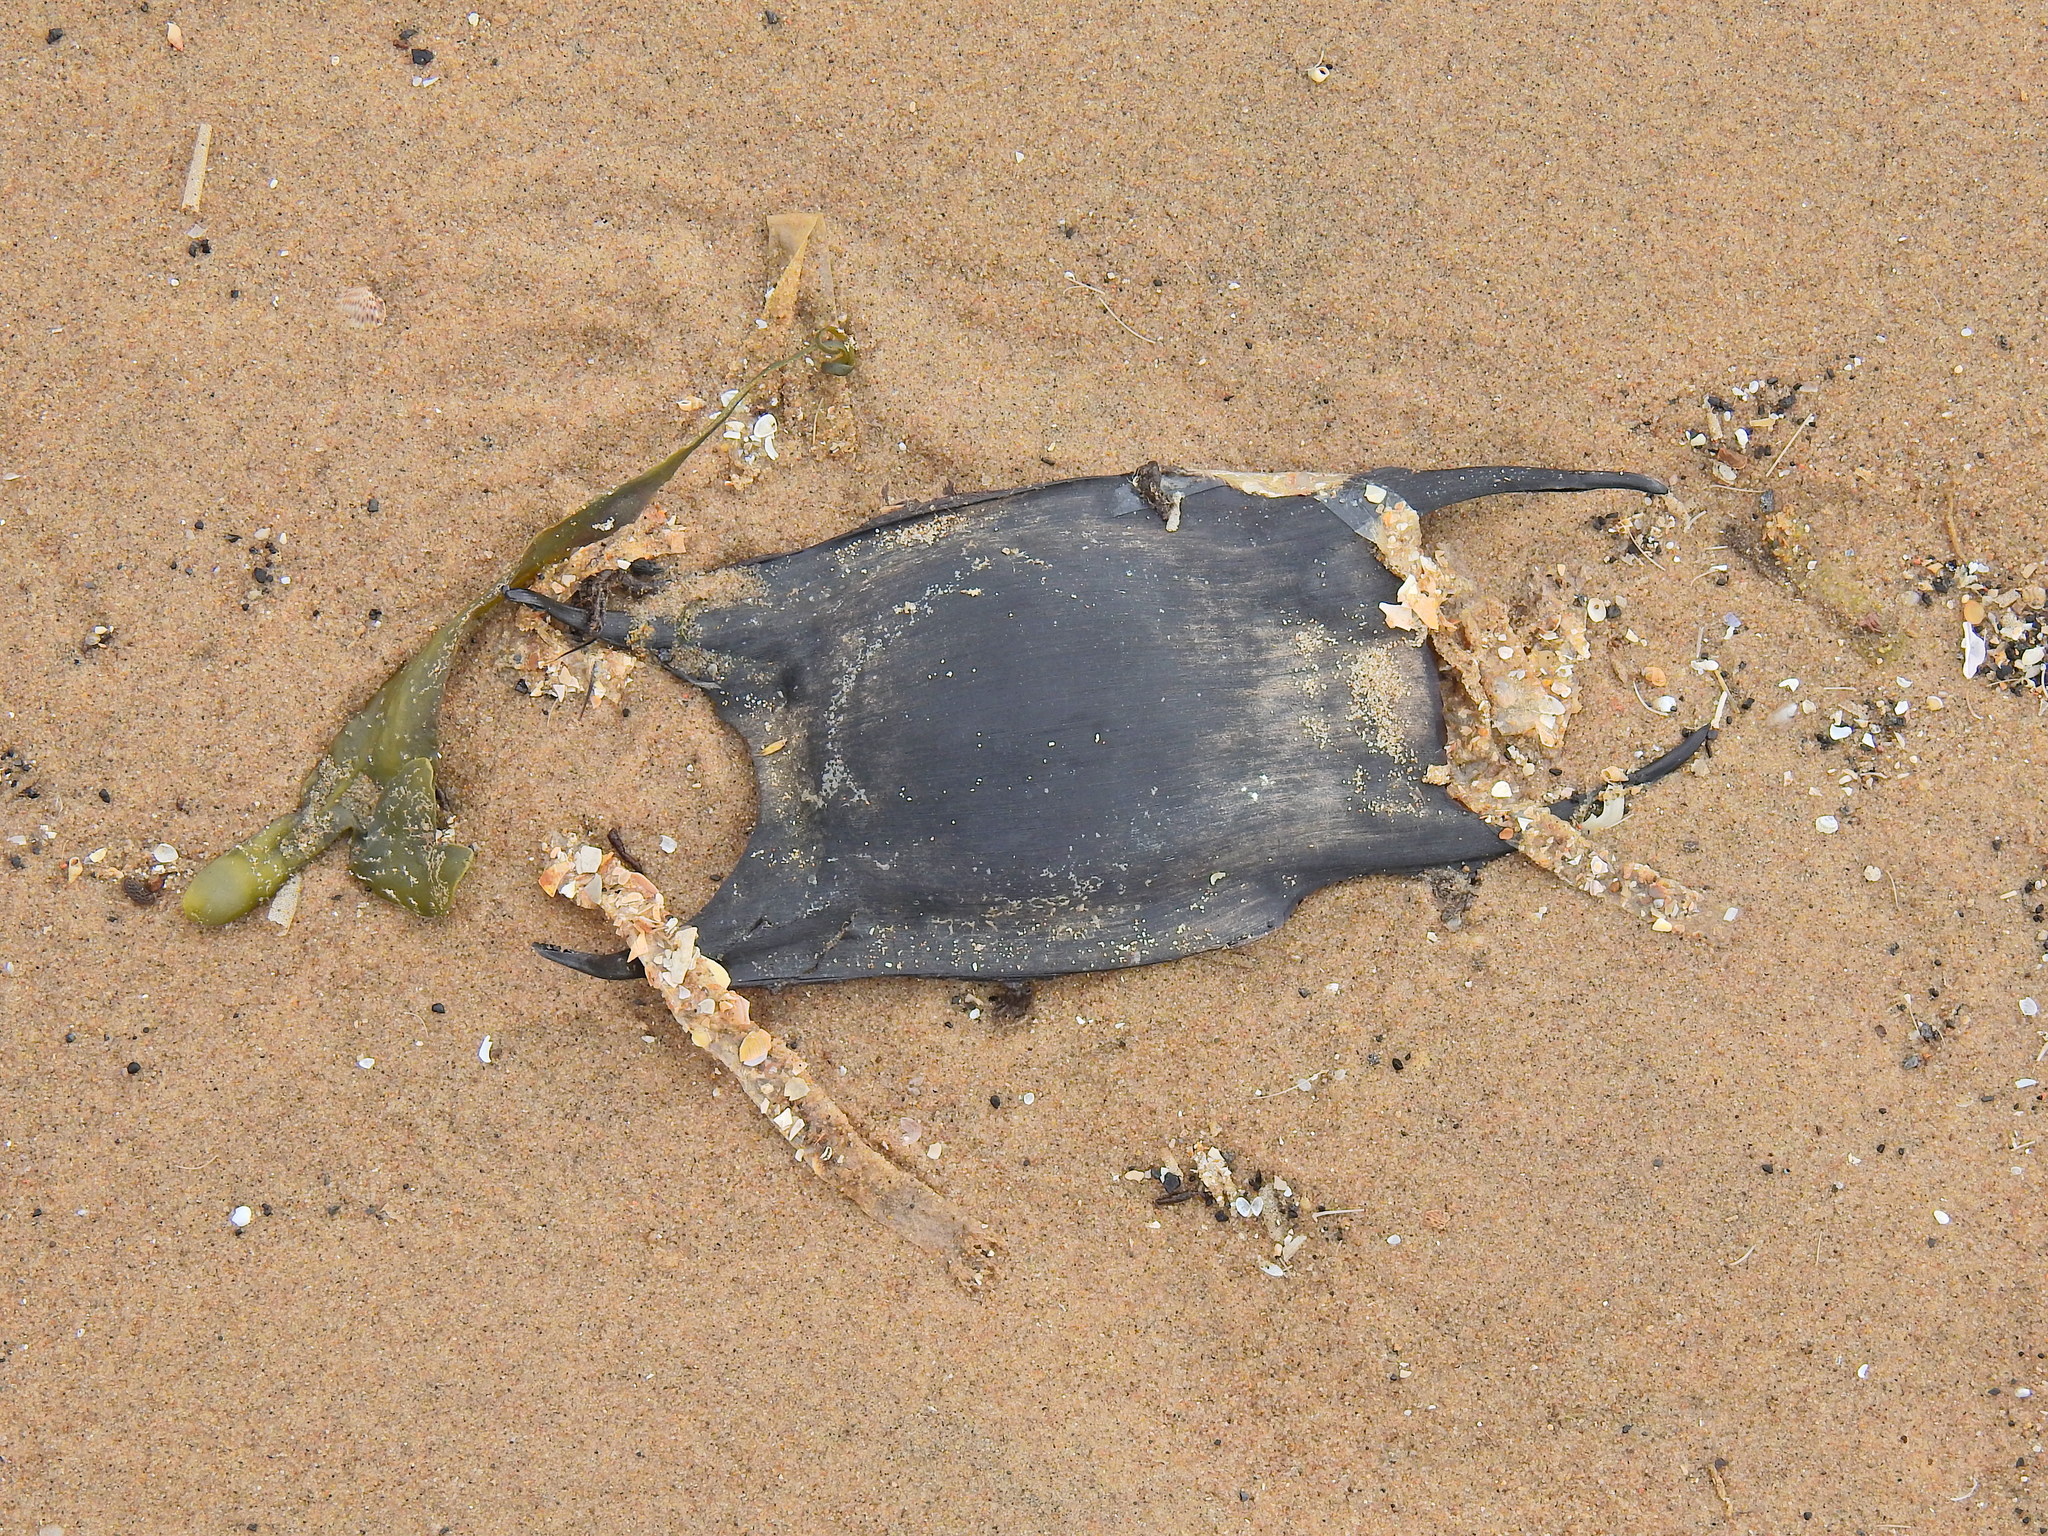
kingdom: Animalia
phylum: Chordata
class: Elasmobranchii
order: Rajiformes
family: Rajidae
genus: Raja
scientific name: Raja clavata
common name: Thornback ray
